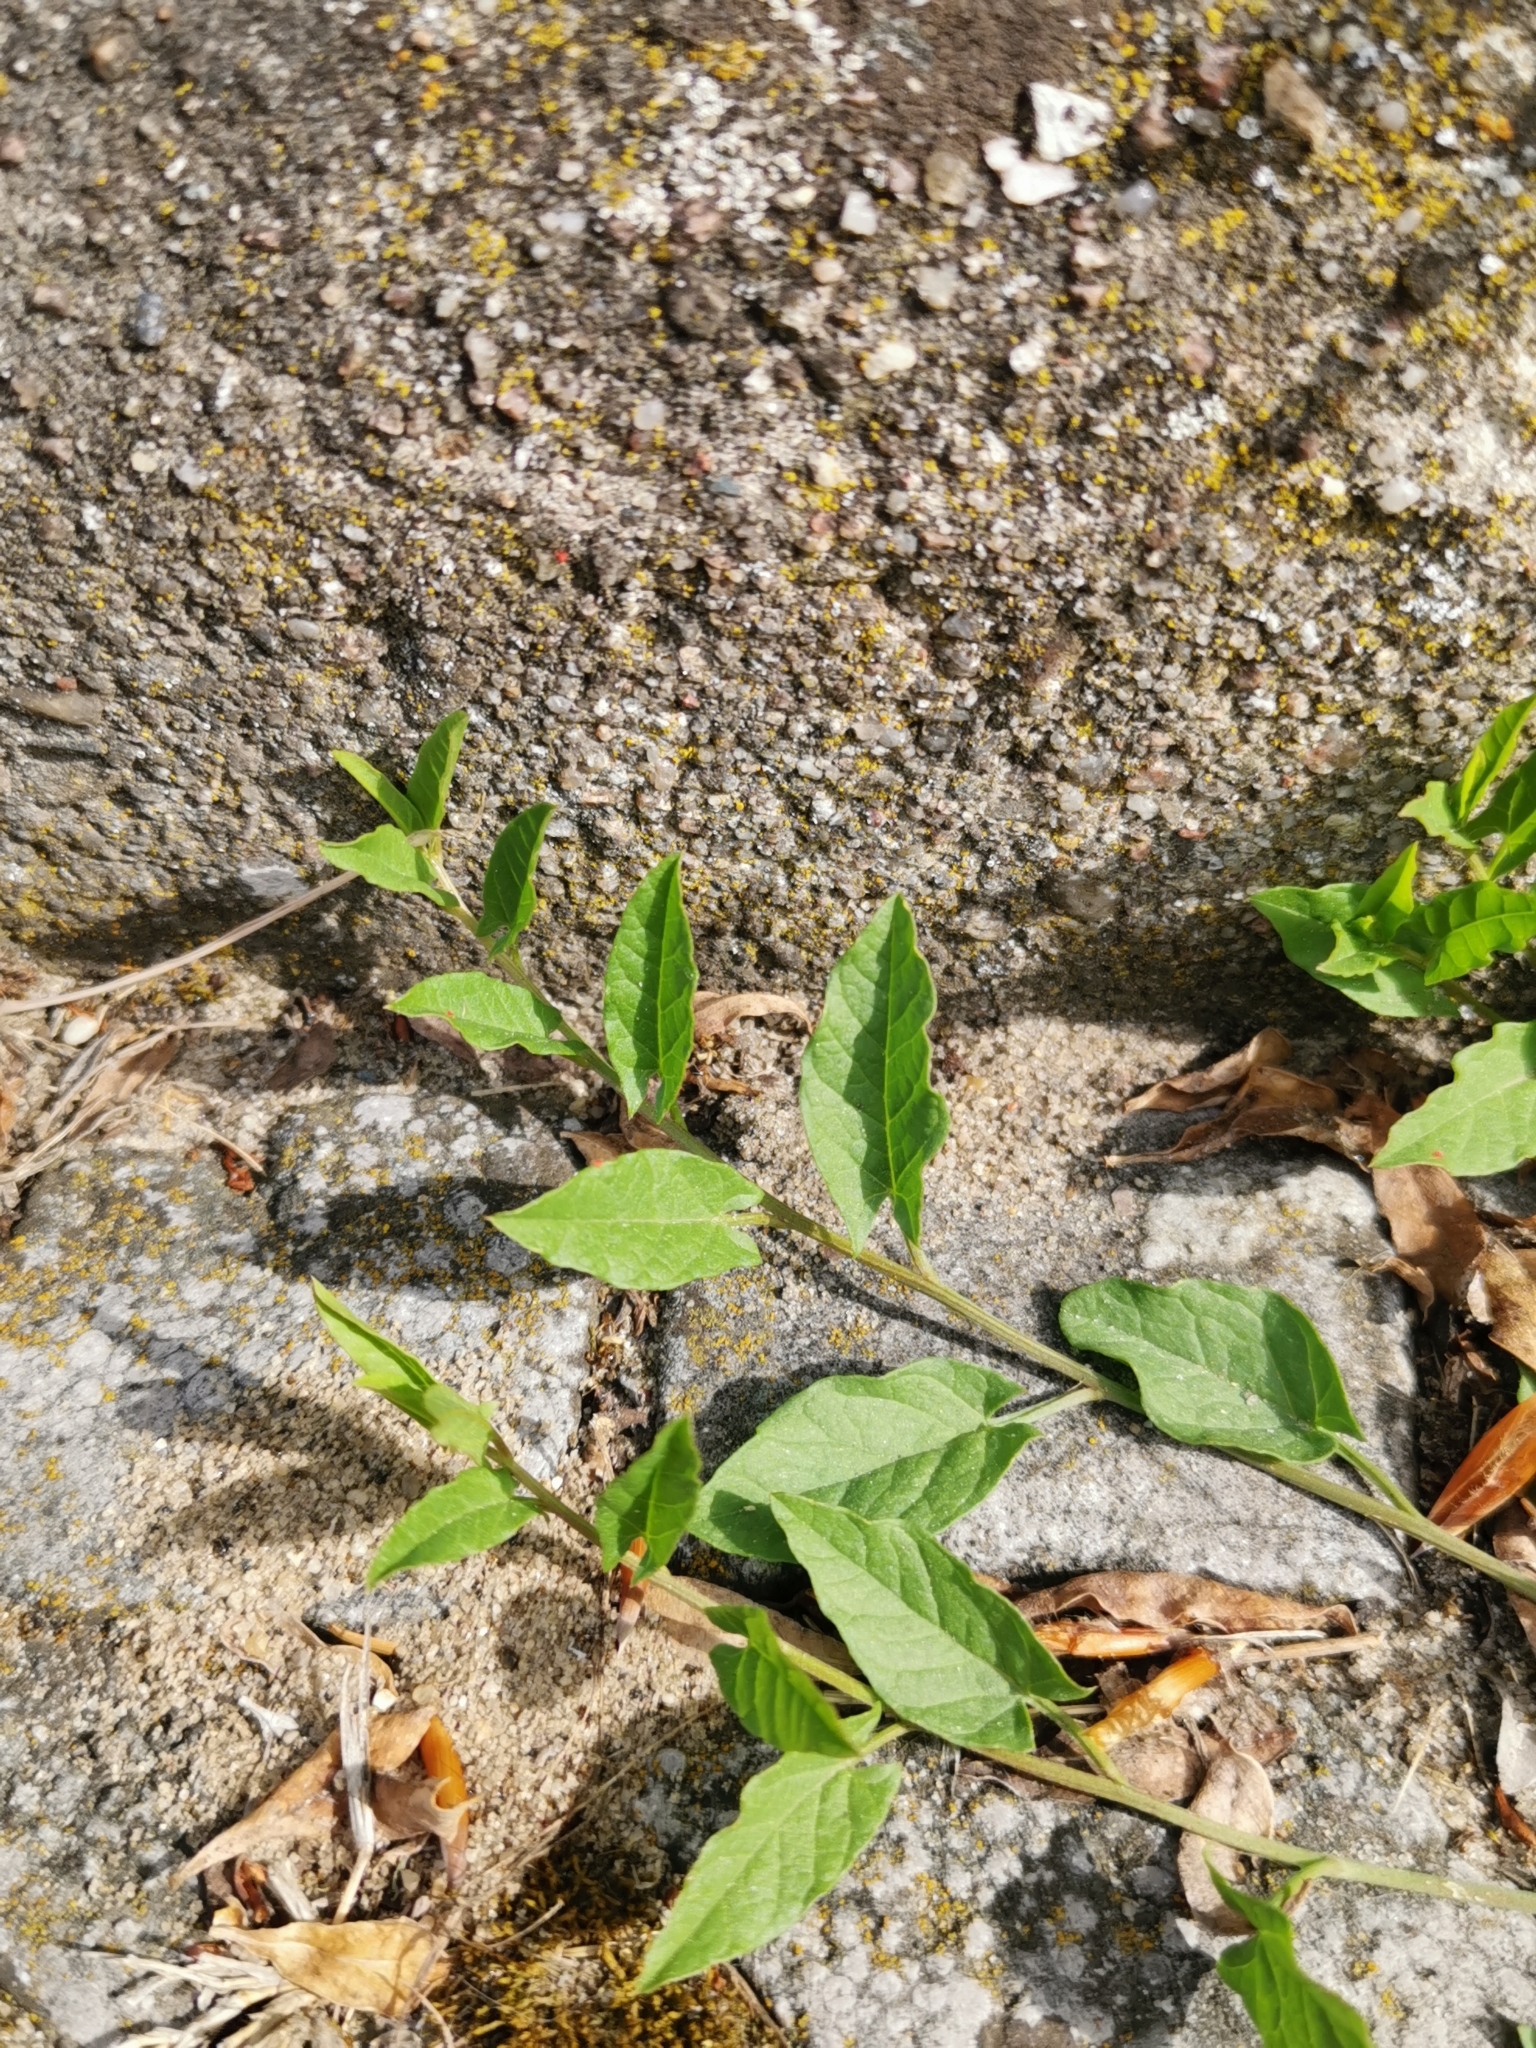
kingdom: Plantae
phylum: Tracheophyta
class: Magnoliopsida
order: Solanales
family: Convolvulaceae
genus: Convolvulus
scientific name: Convolvulus arvensis
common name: Field bindweed
